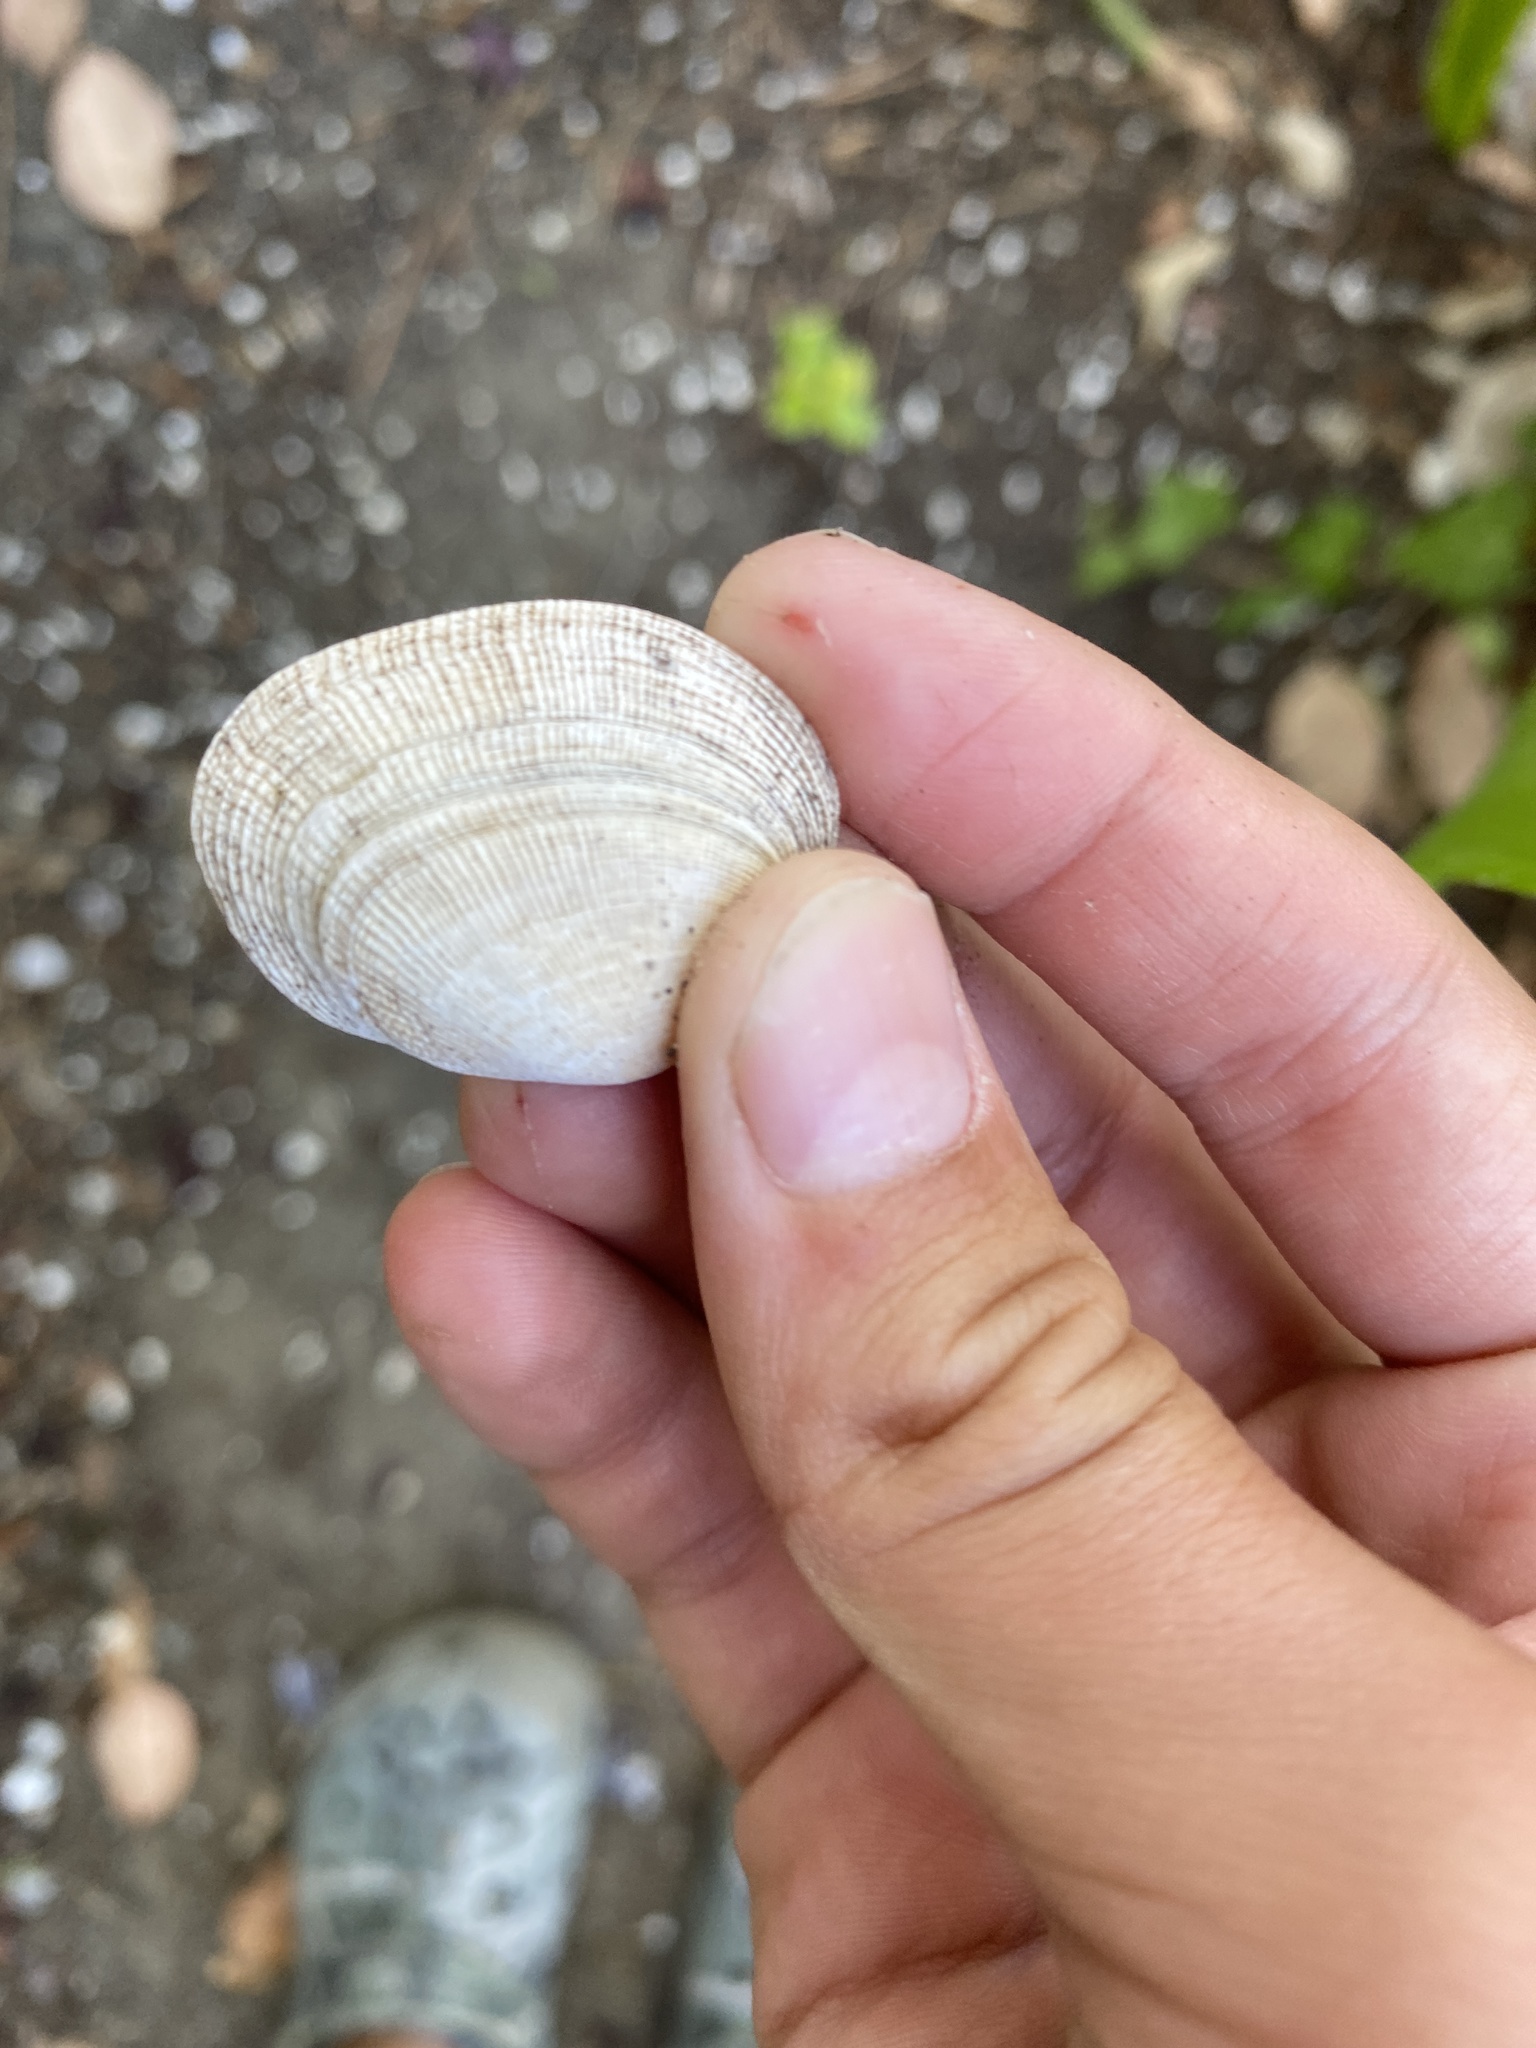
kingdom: Animalia
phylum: Mollusca
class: Bivalvia
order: Venerida
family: Veneridae
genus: Ruditapes
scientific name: Ruditapes philippinarum
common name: Manila clam
